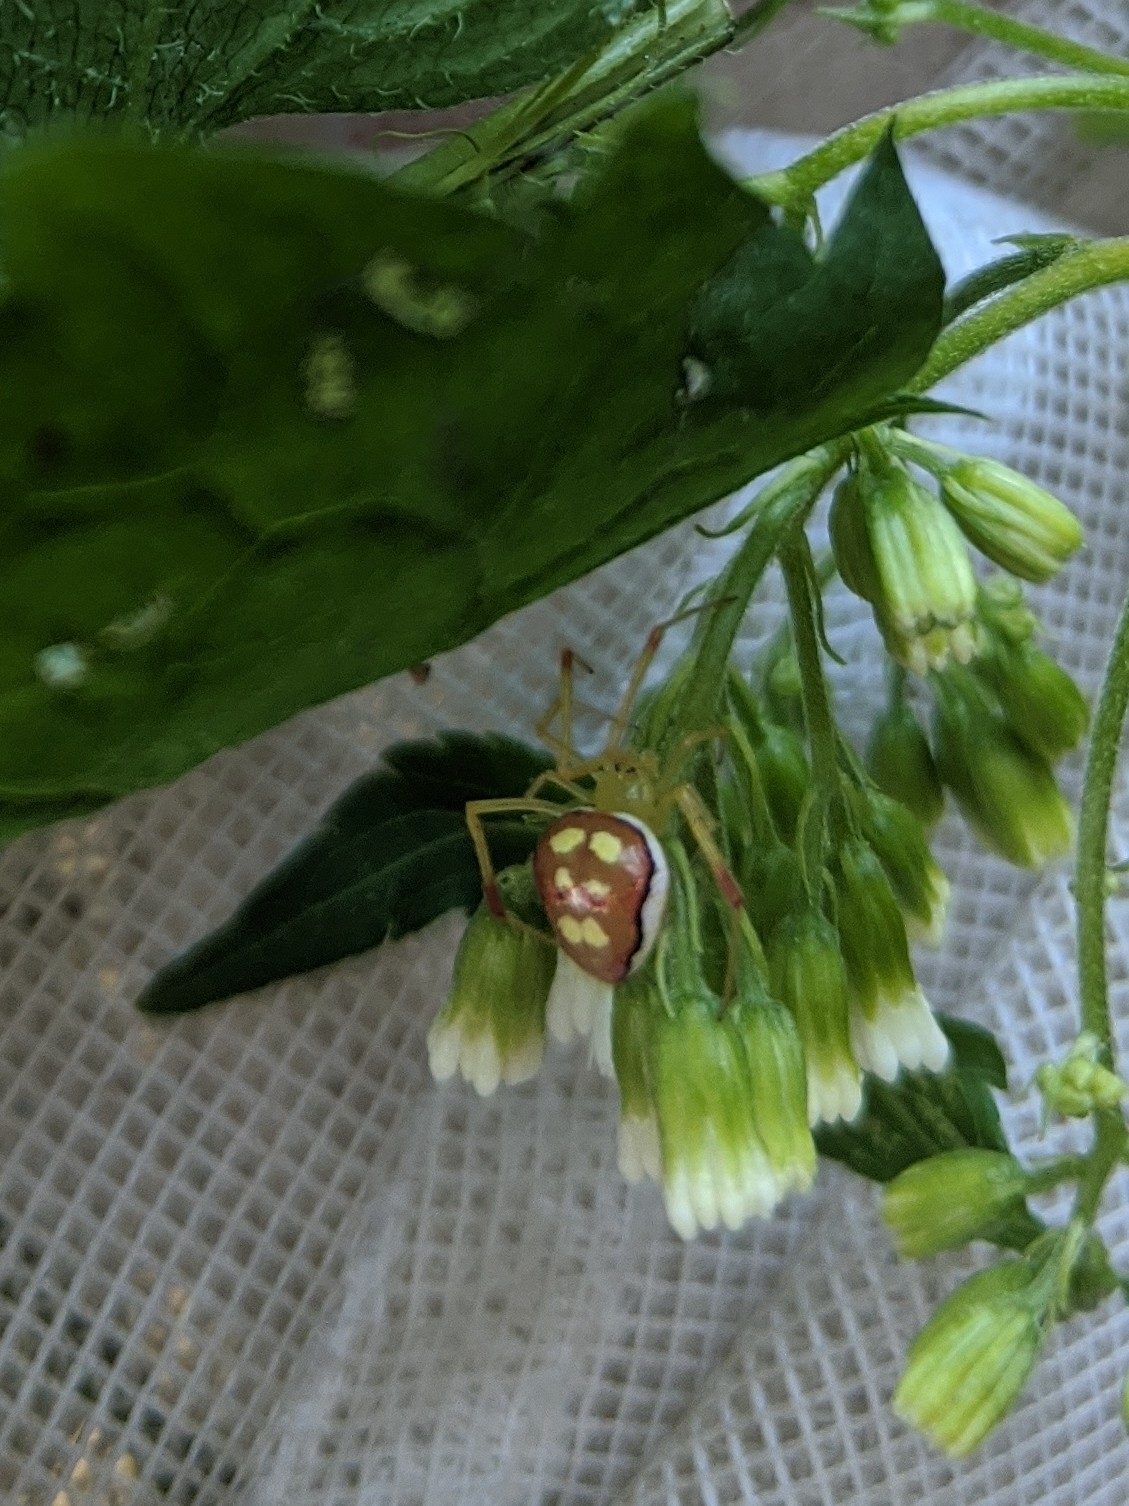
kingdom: Animalia
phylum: Arthropoda
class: Arachnida
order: Araneae
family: Theridiidae
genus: Spintharus
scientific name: Spintharus flavidus
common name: Cobweb spiders
